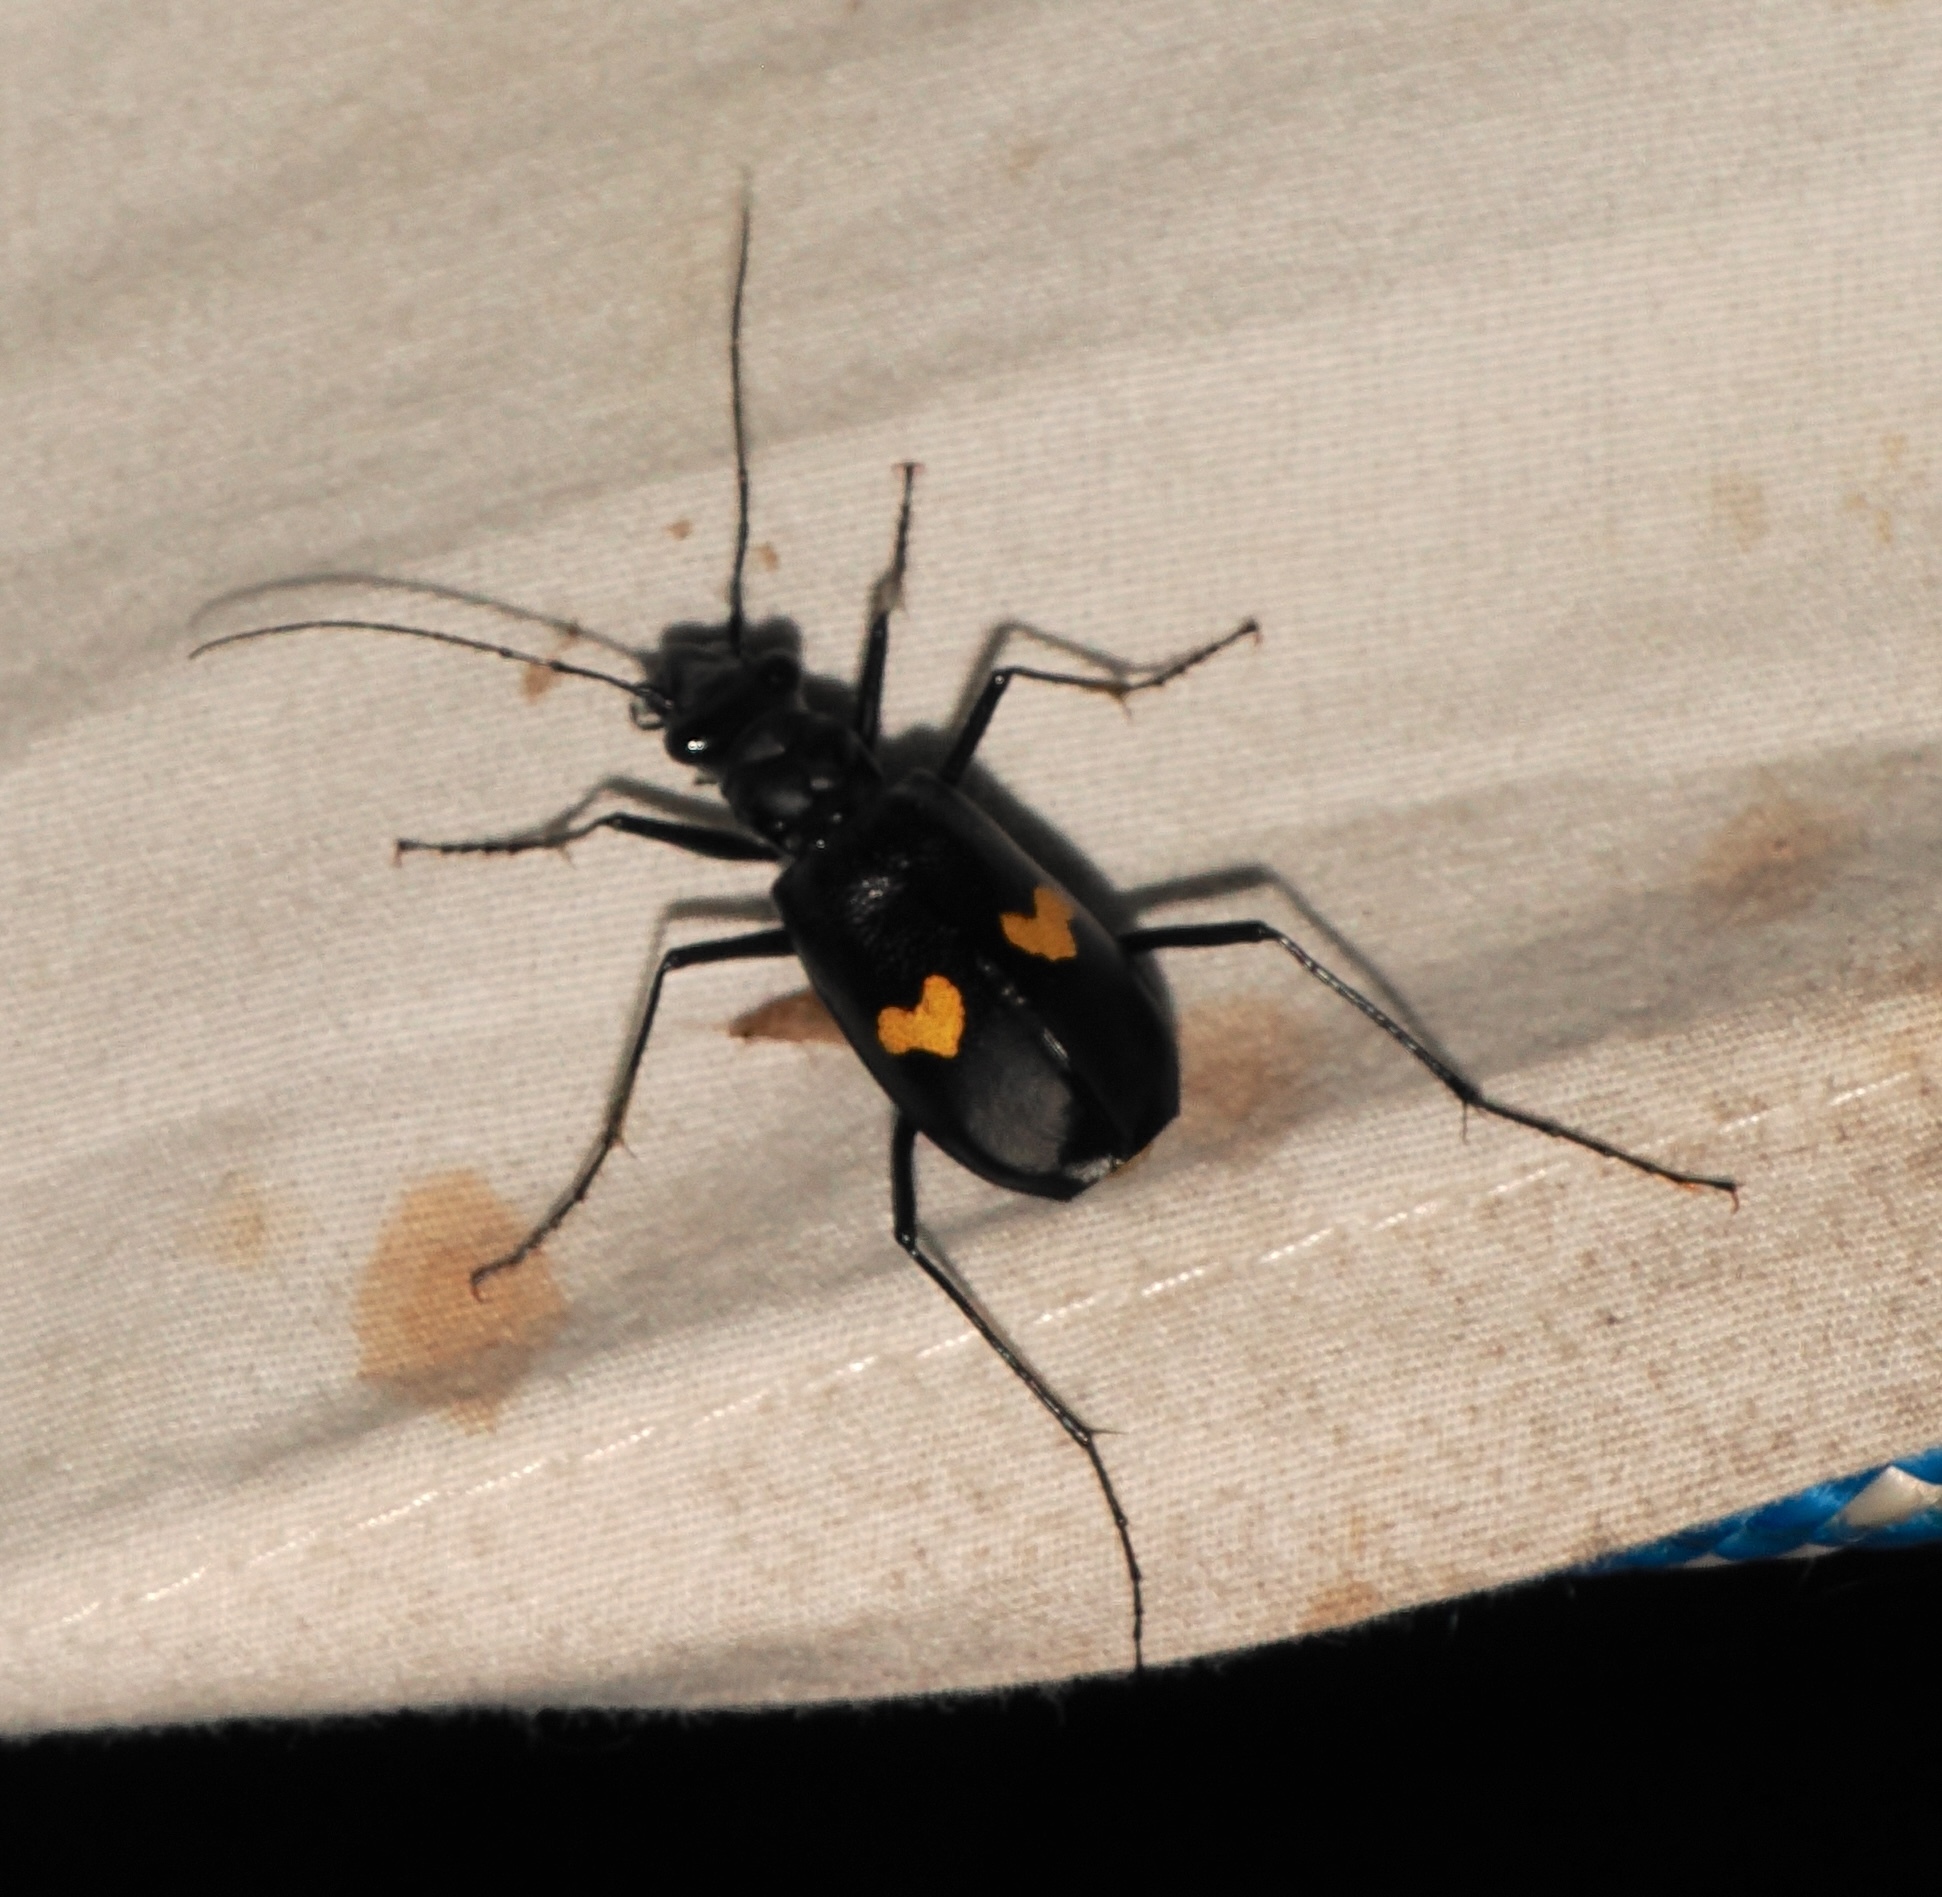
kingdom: Animalia
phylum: Arthropoda
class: Insecta
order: Coleoptera
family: Carabidae
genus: Oxycheila
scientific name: Oxycheila tristis
